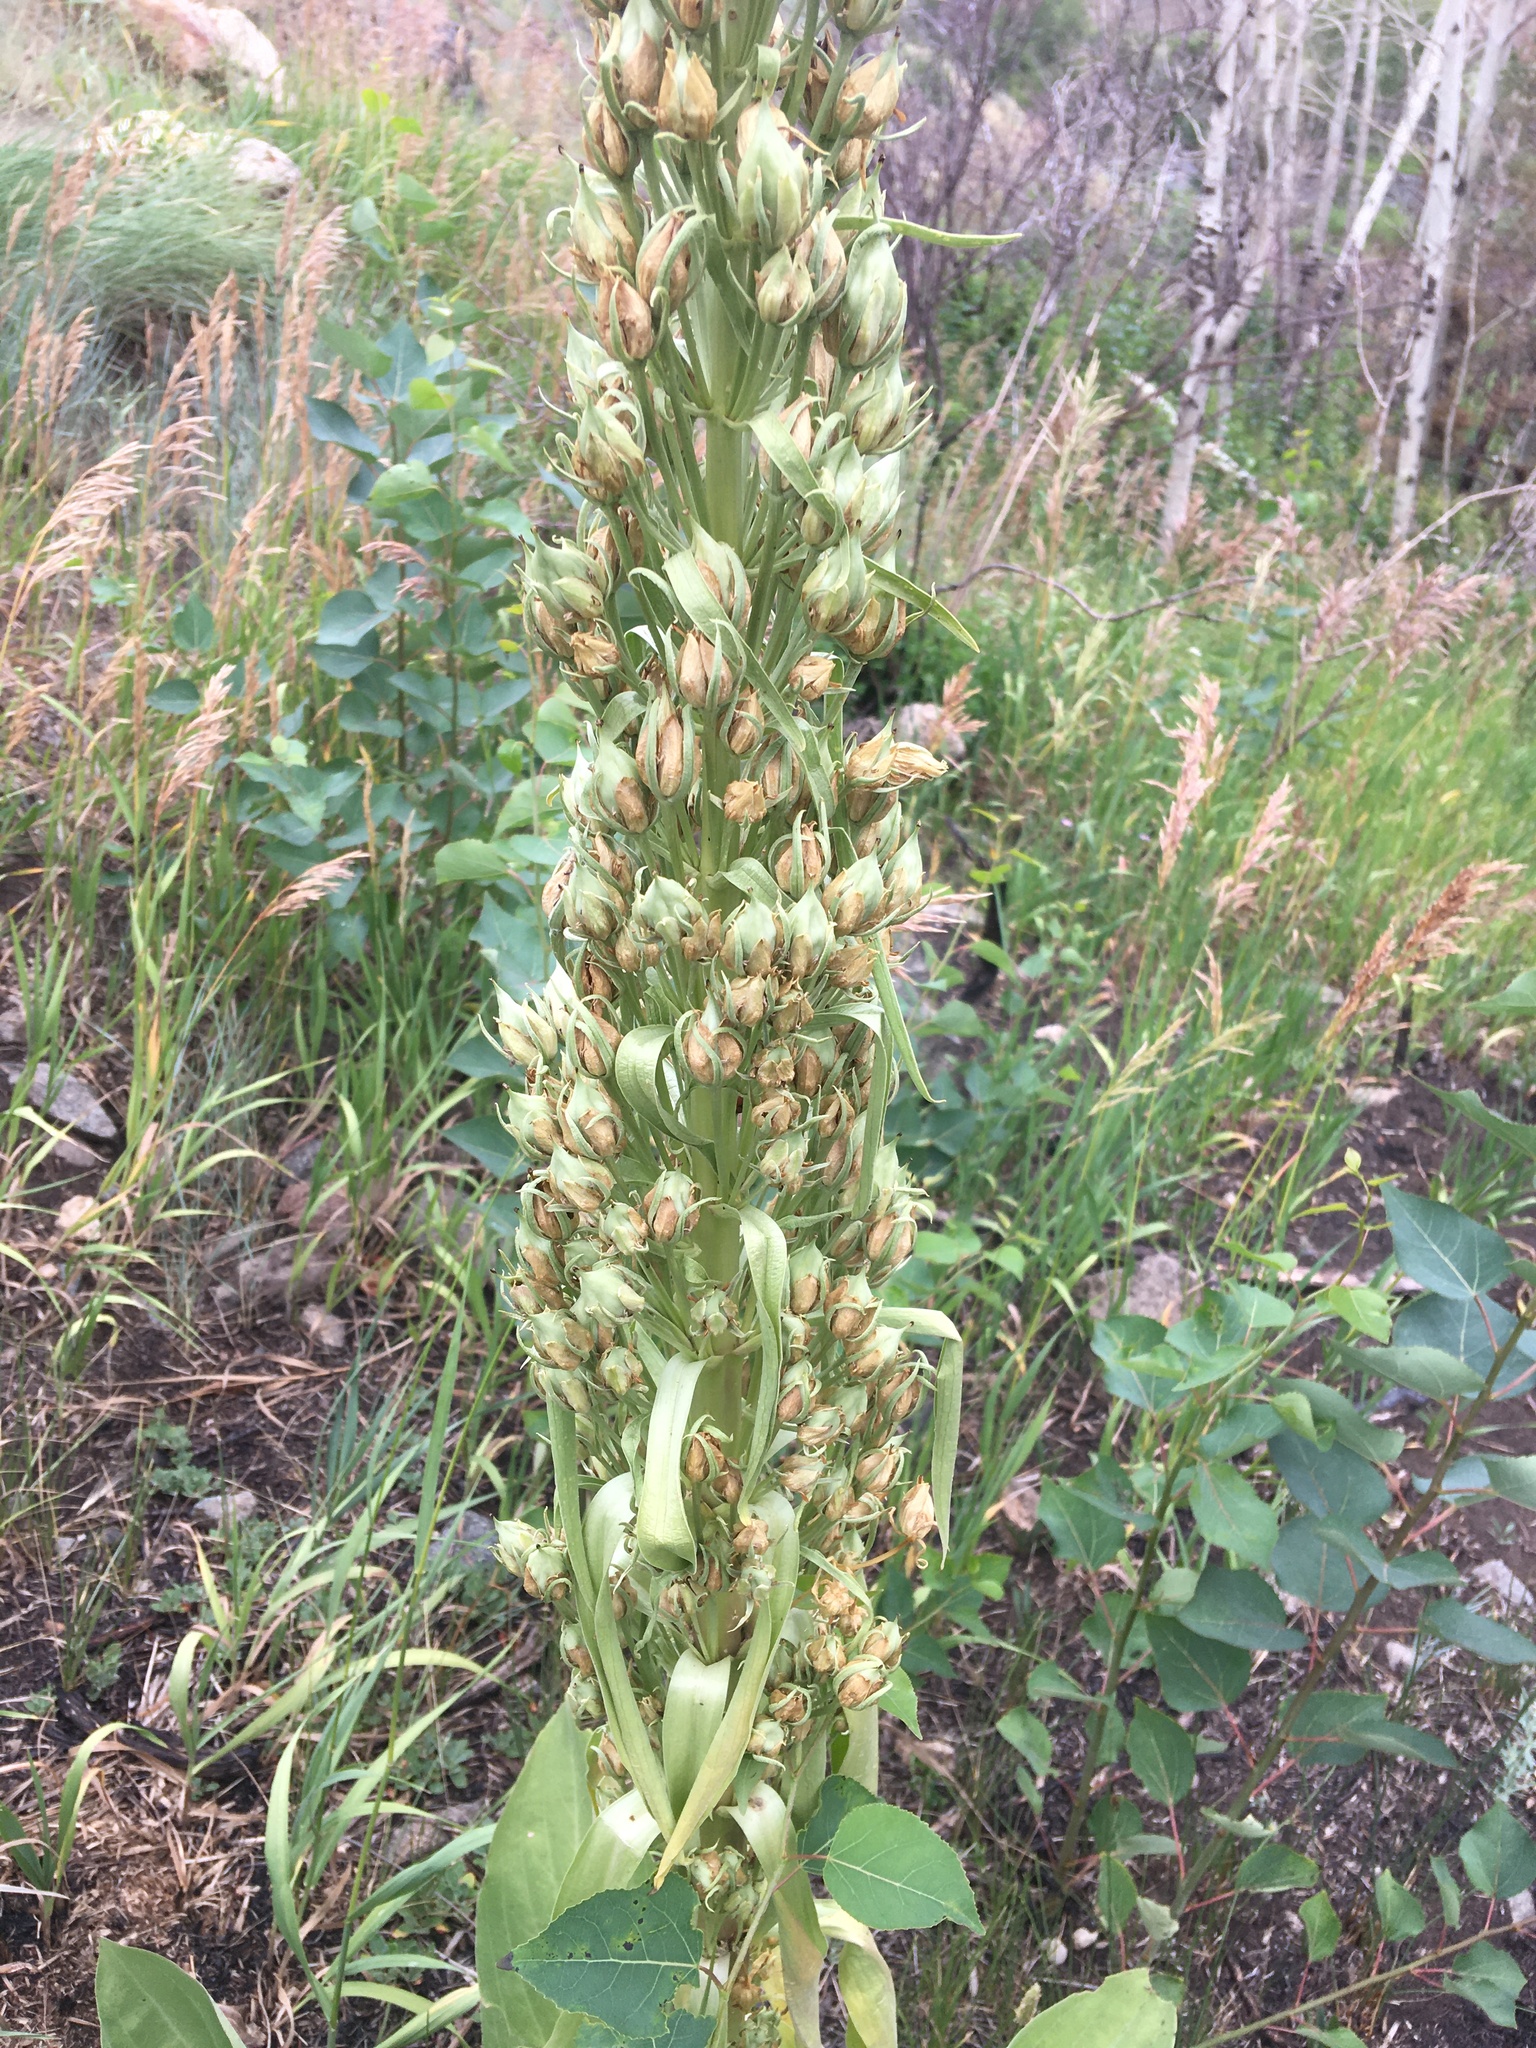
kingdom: Plantae
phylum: Tracheophyta
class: Magnoliopsida
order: Gentianales
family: Gentianaceae
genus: Frasera
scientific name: Frasera speciosa
